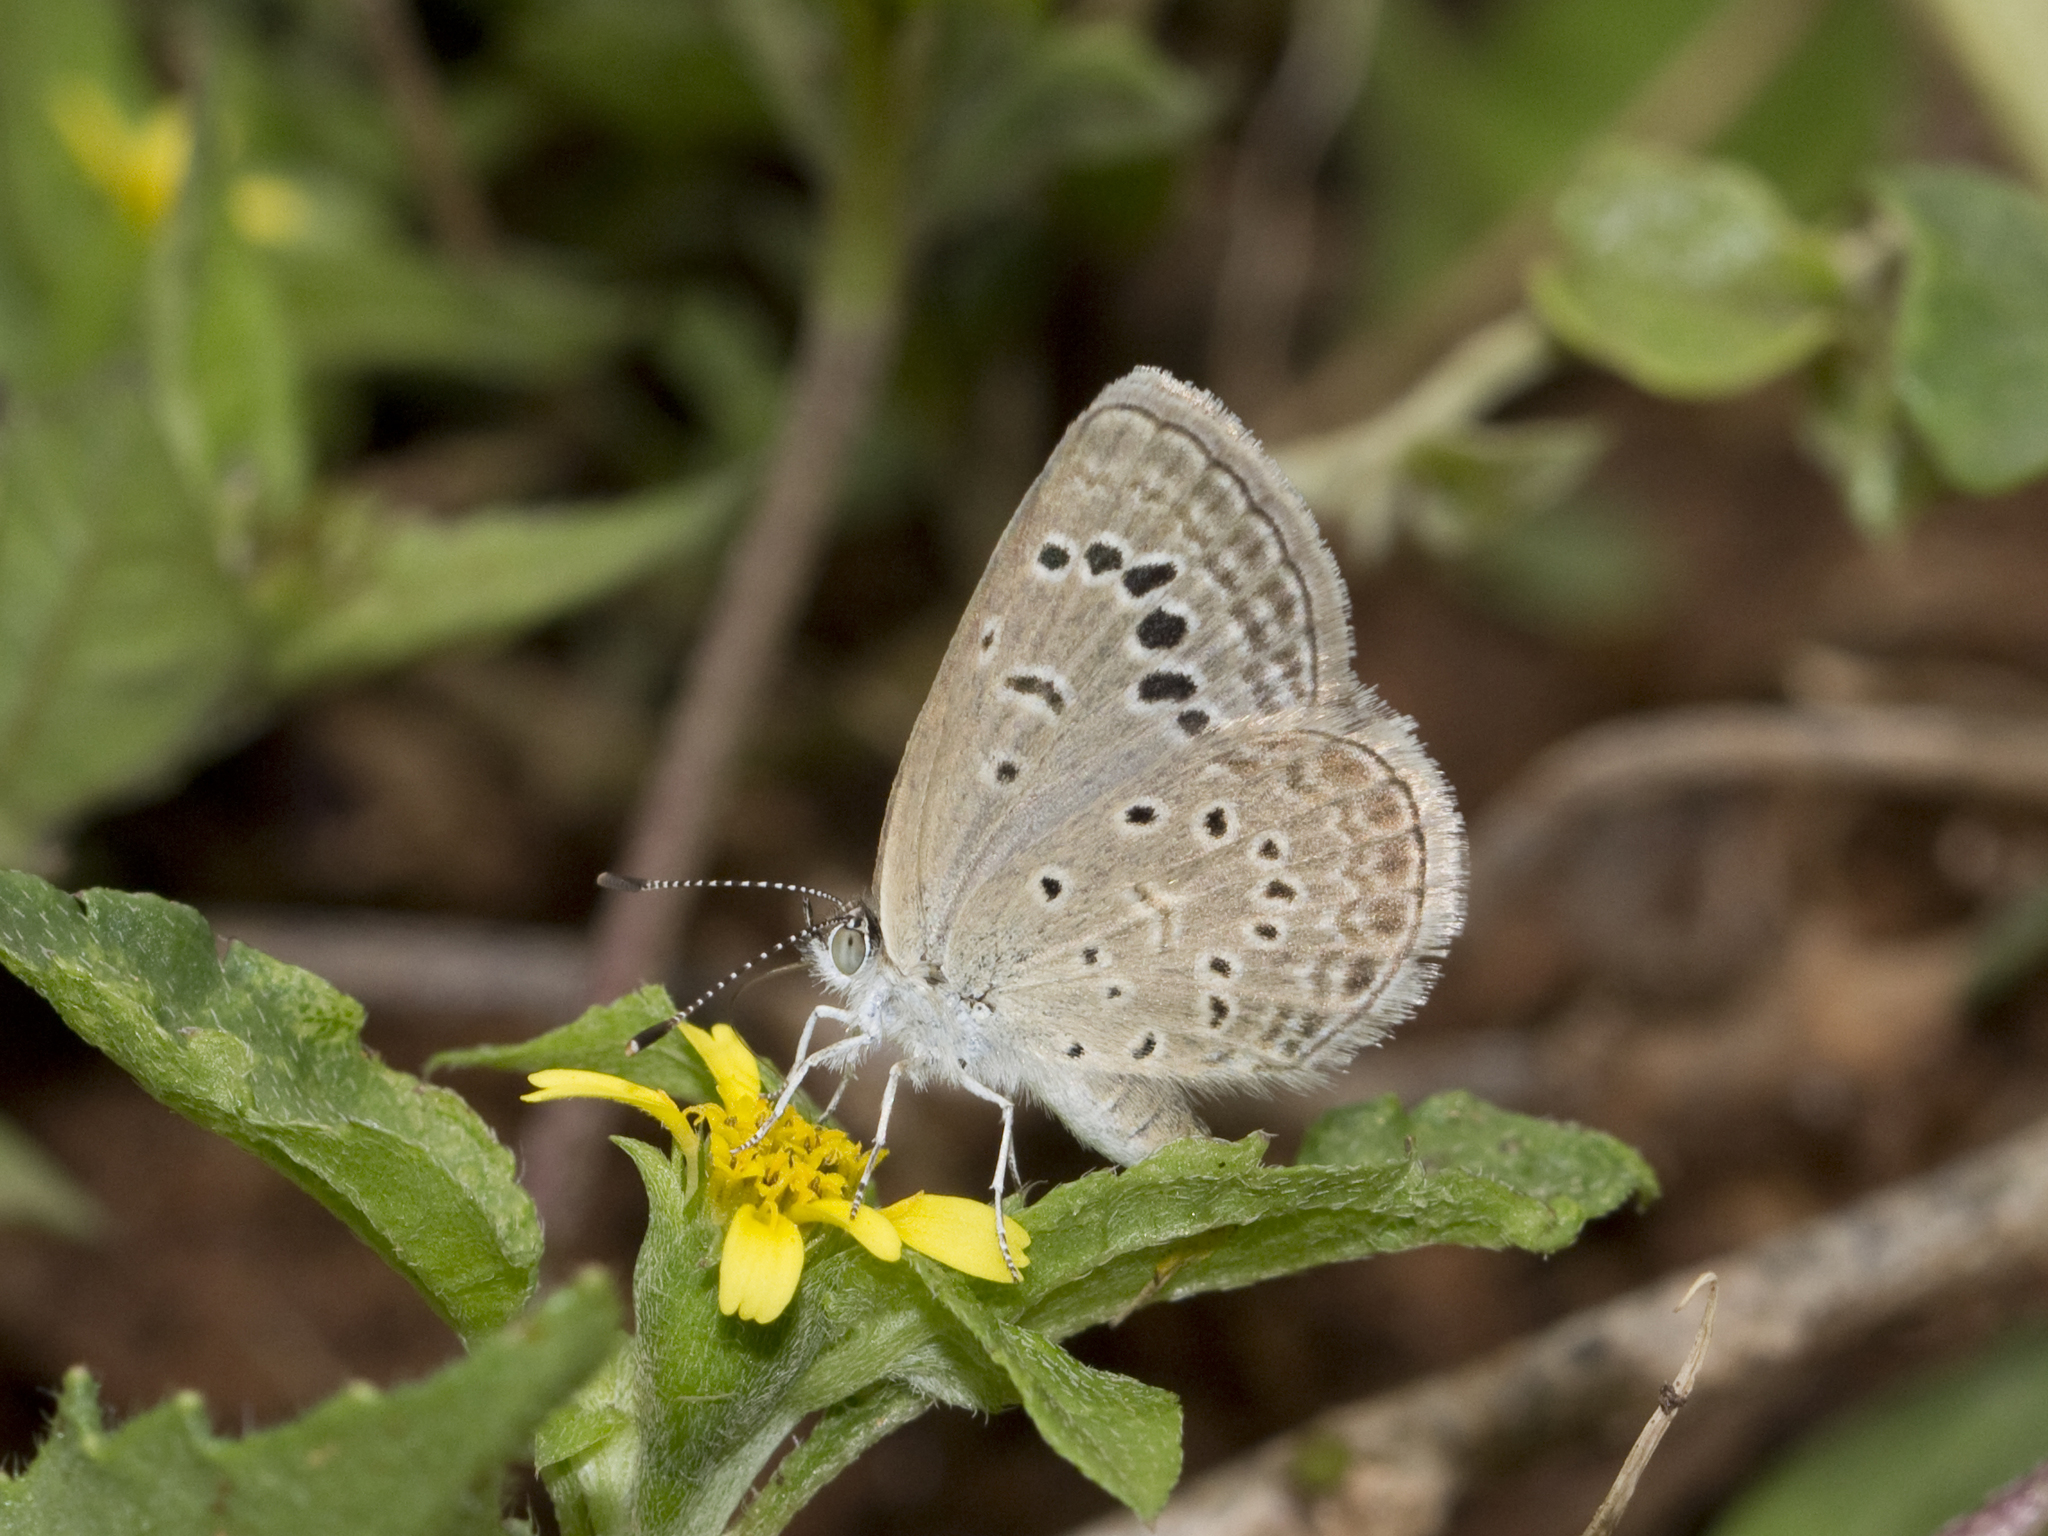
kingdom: Animalia
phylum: Arthropoda
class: Insecta
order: Lepidoptera
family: Lycaenidae
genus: Zizeeria
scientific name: Zizeeria karsandra
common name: Dark grass blue
